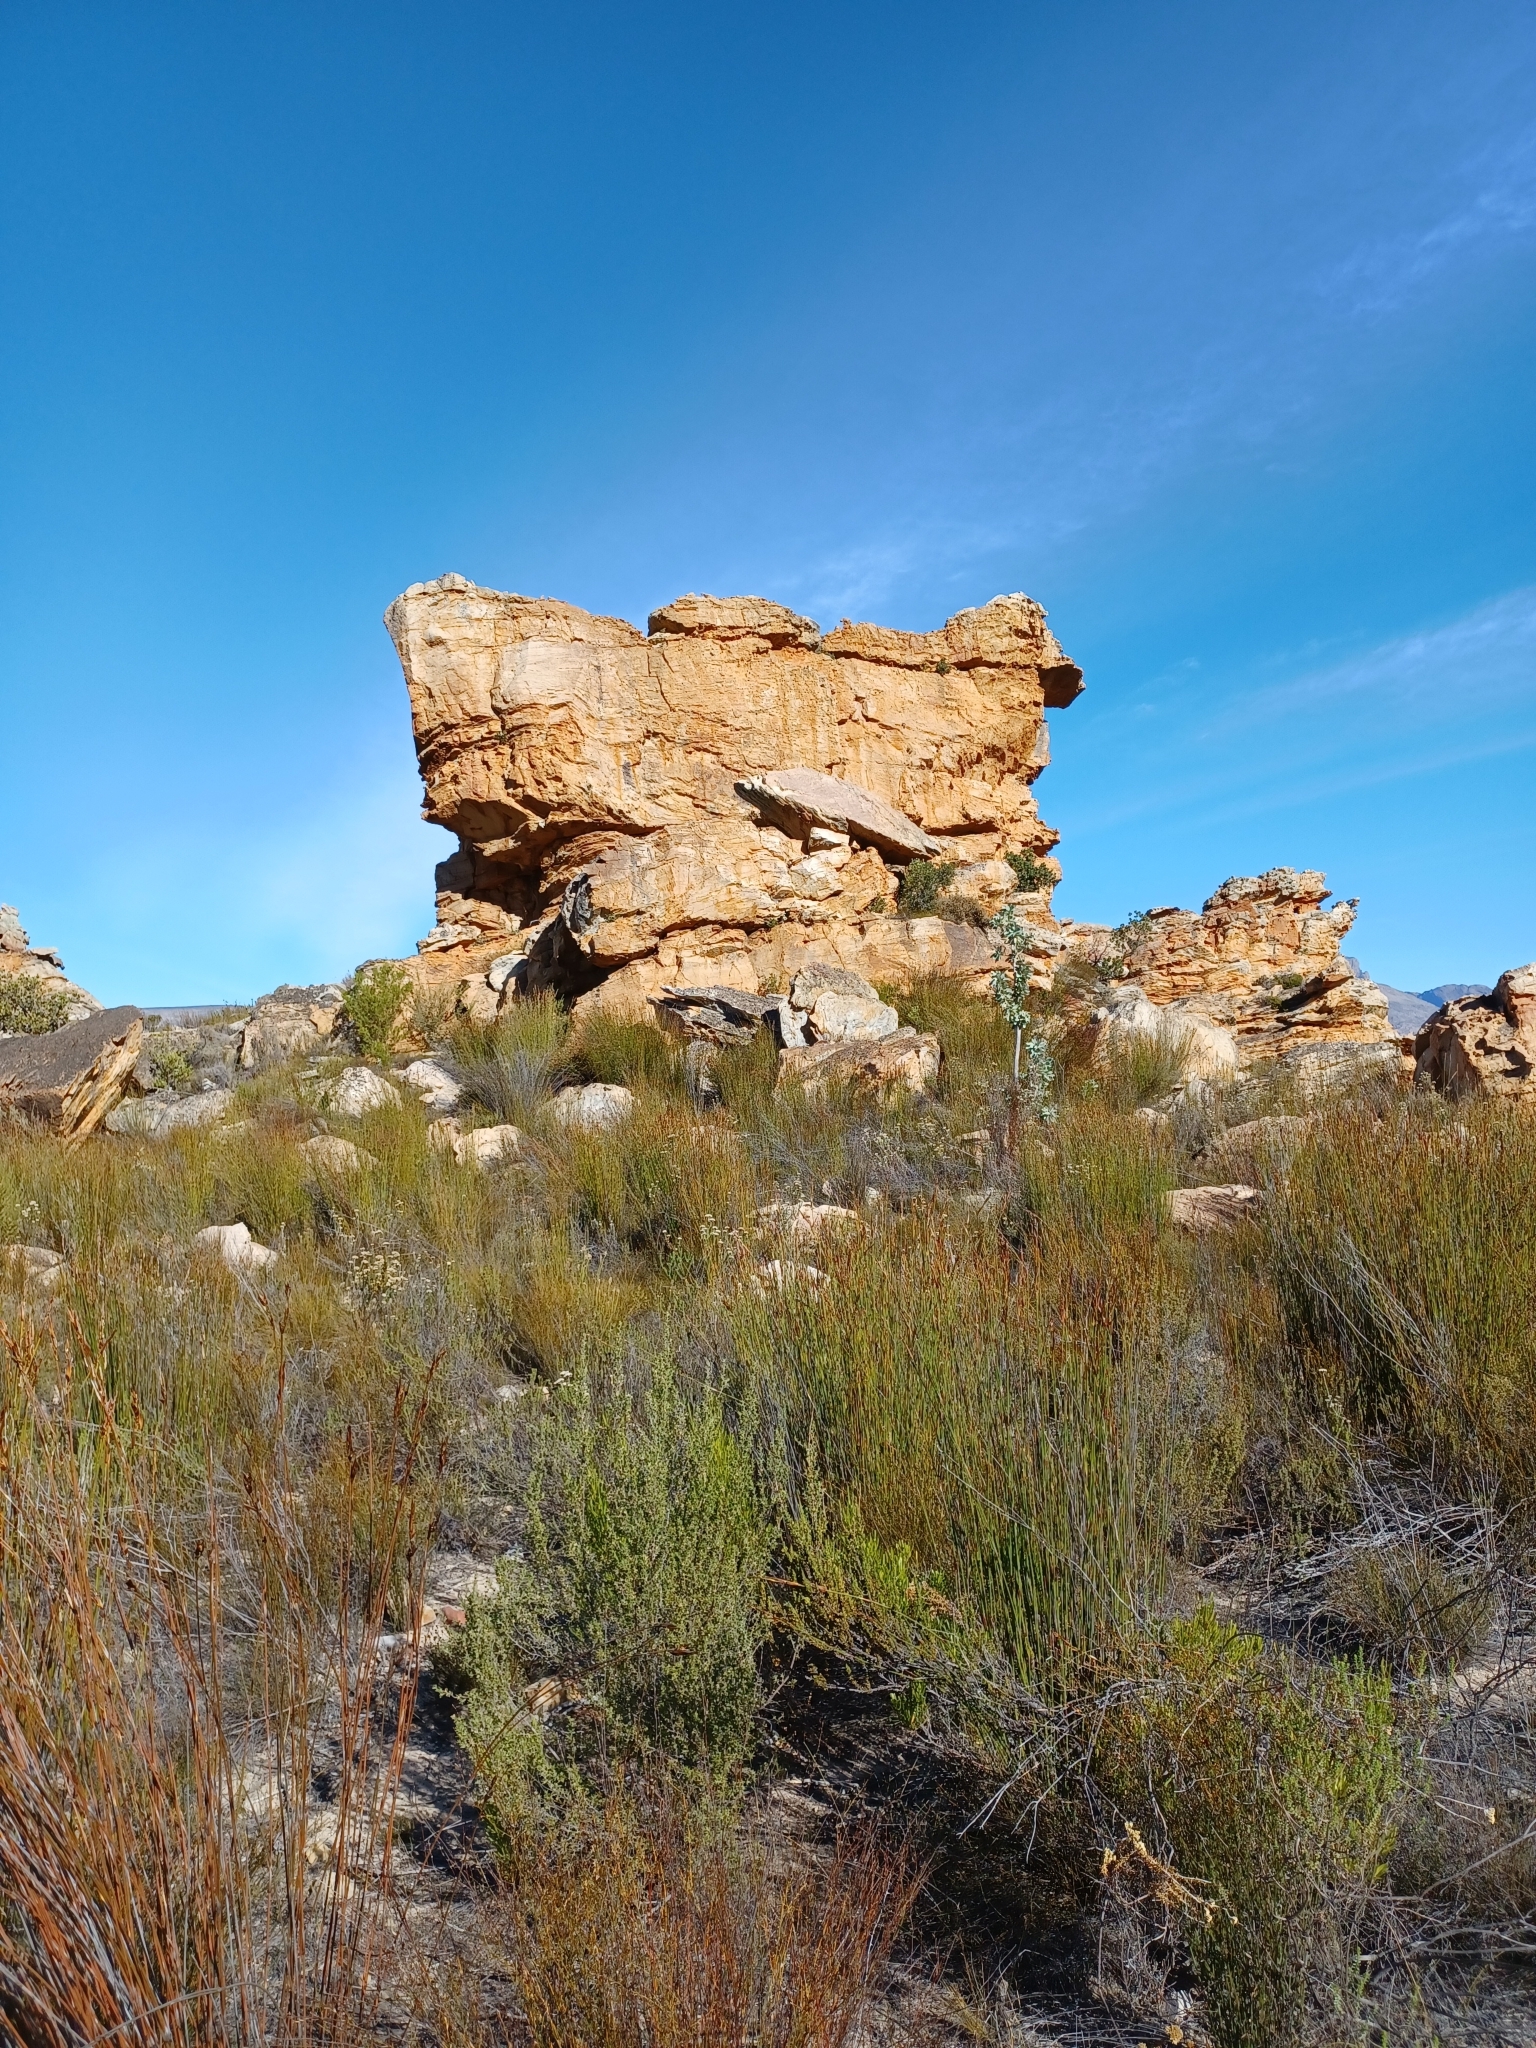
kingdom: Plantae
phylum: Tracheophyta
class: Magnoliopsida
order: Fabales
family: Fabaceae
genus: Aspalathus
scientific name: Aspalathus linearis
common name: Rooibos-tea
